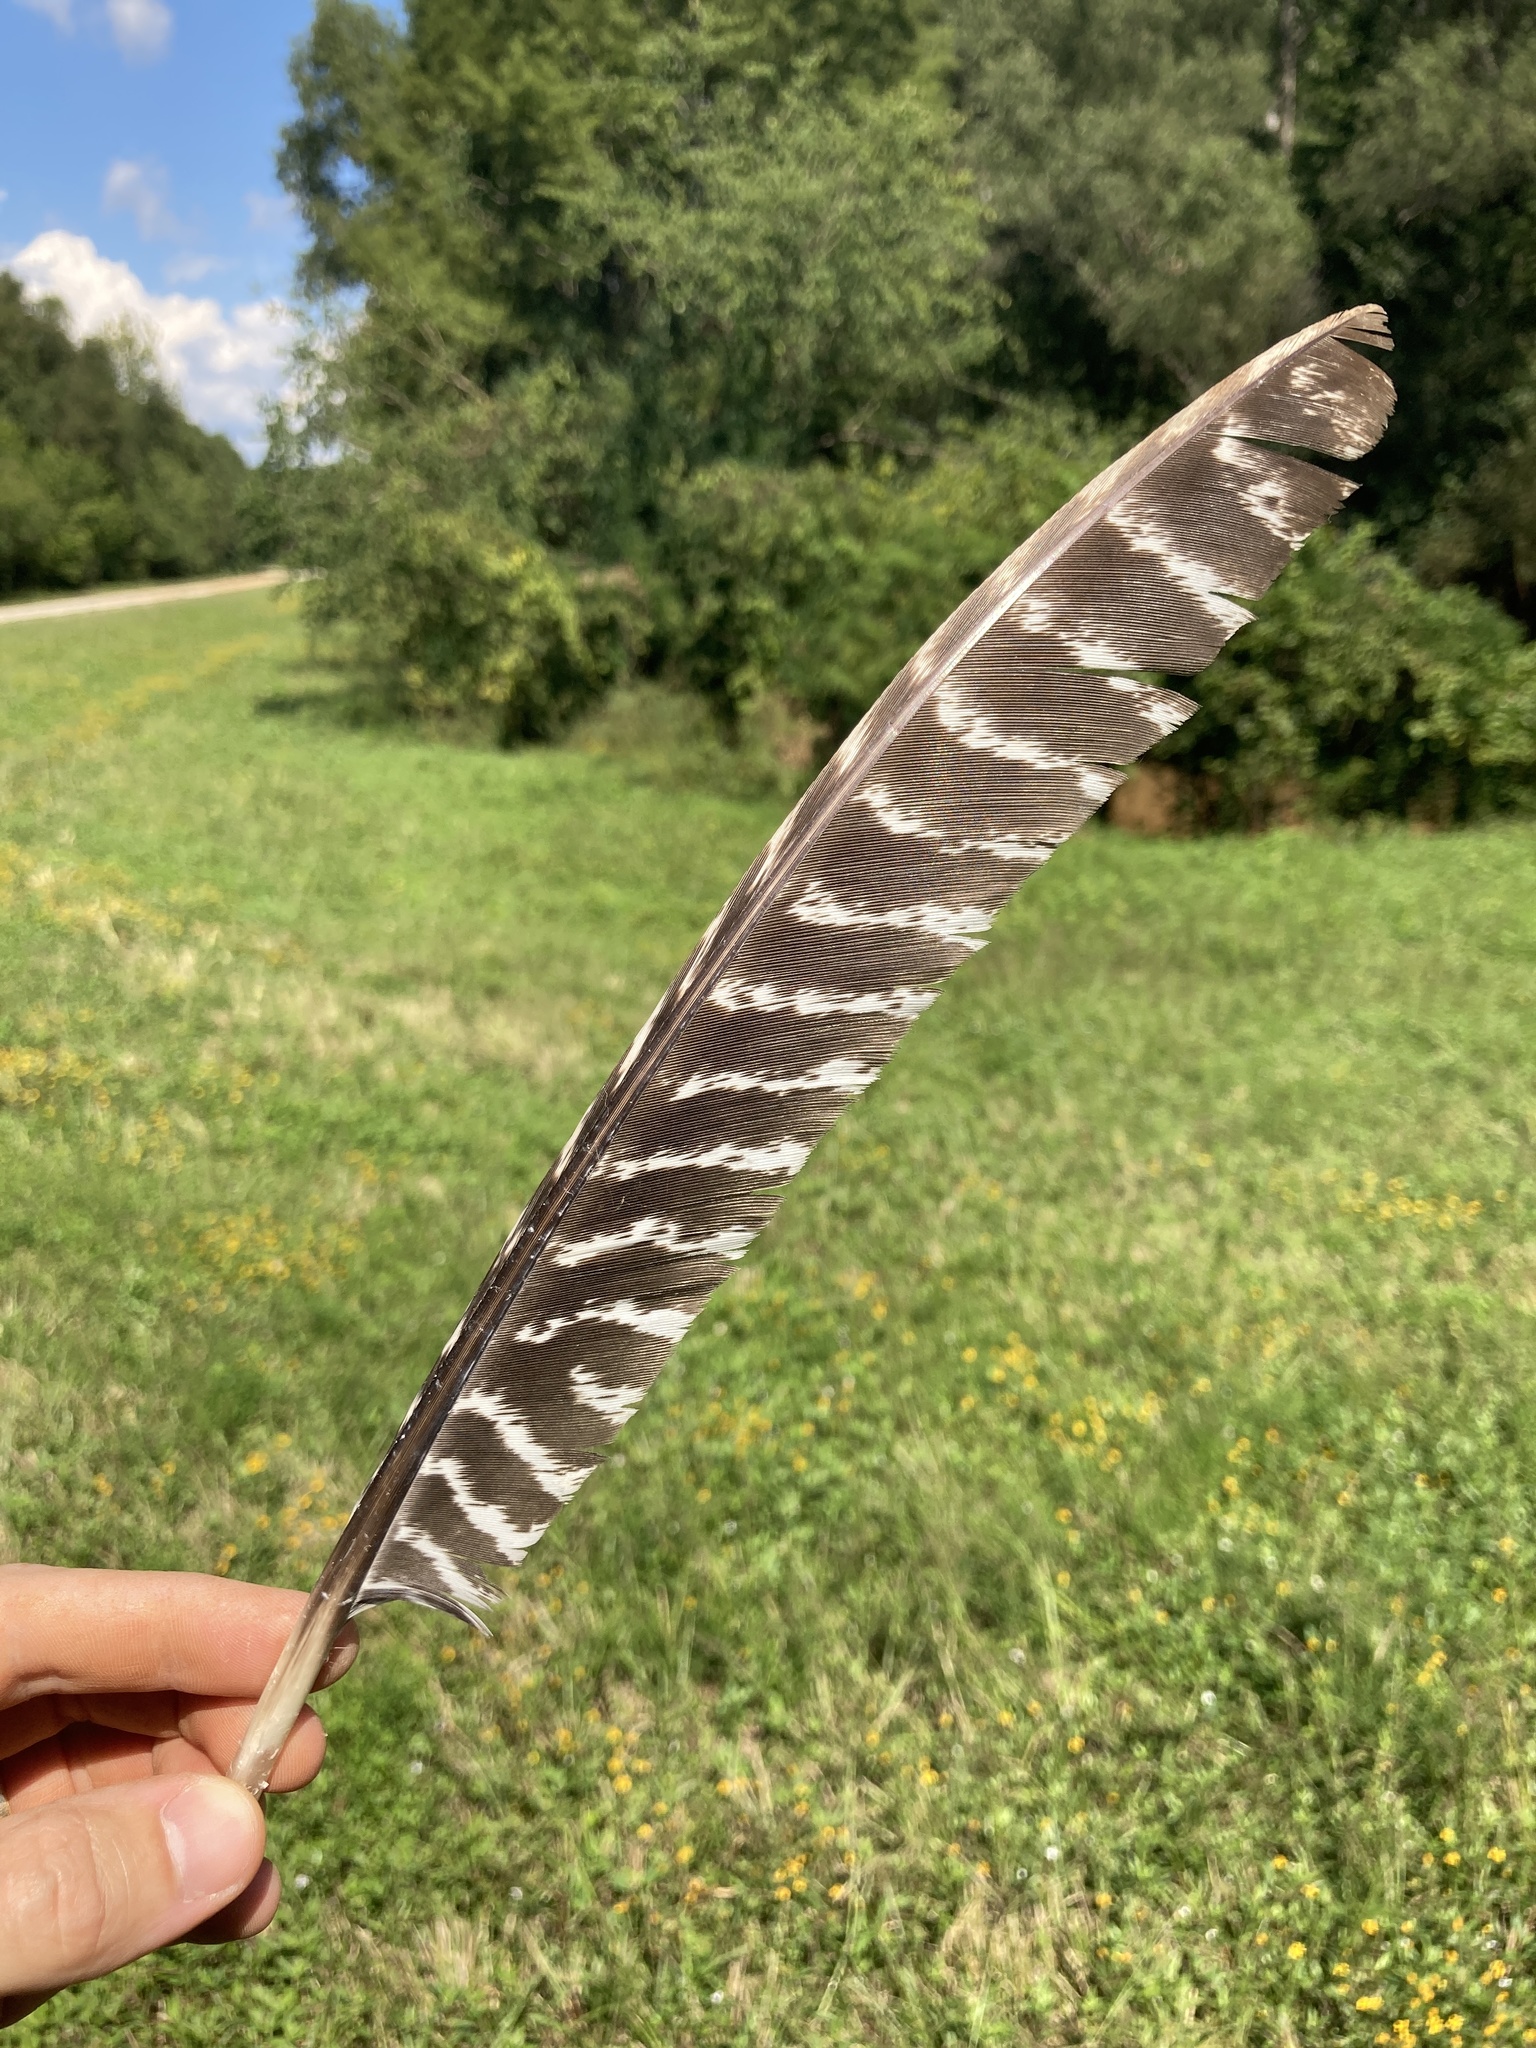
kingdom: Animalia
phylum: Chordata
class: Aves
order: Galliformes
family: Phasianidae
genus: Meleagris
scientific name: Meleagris gallopavo
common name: Wild turkey
